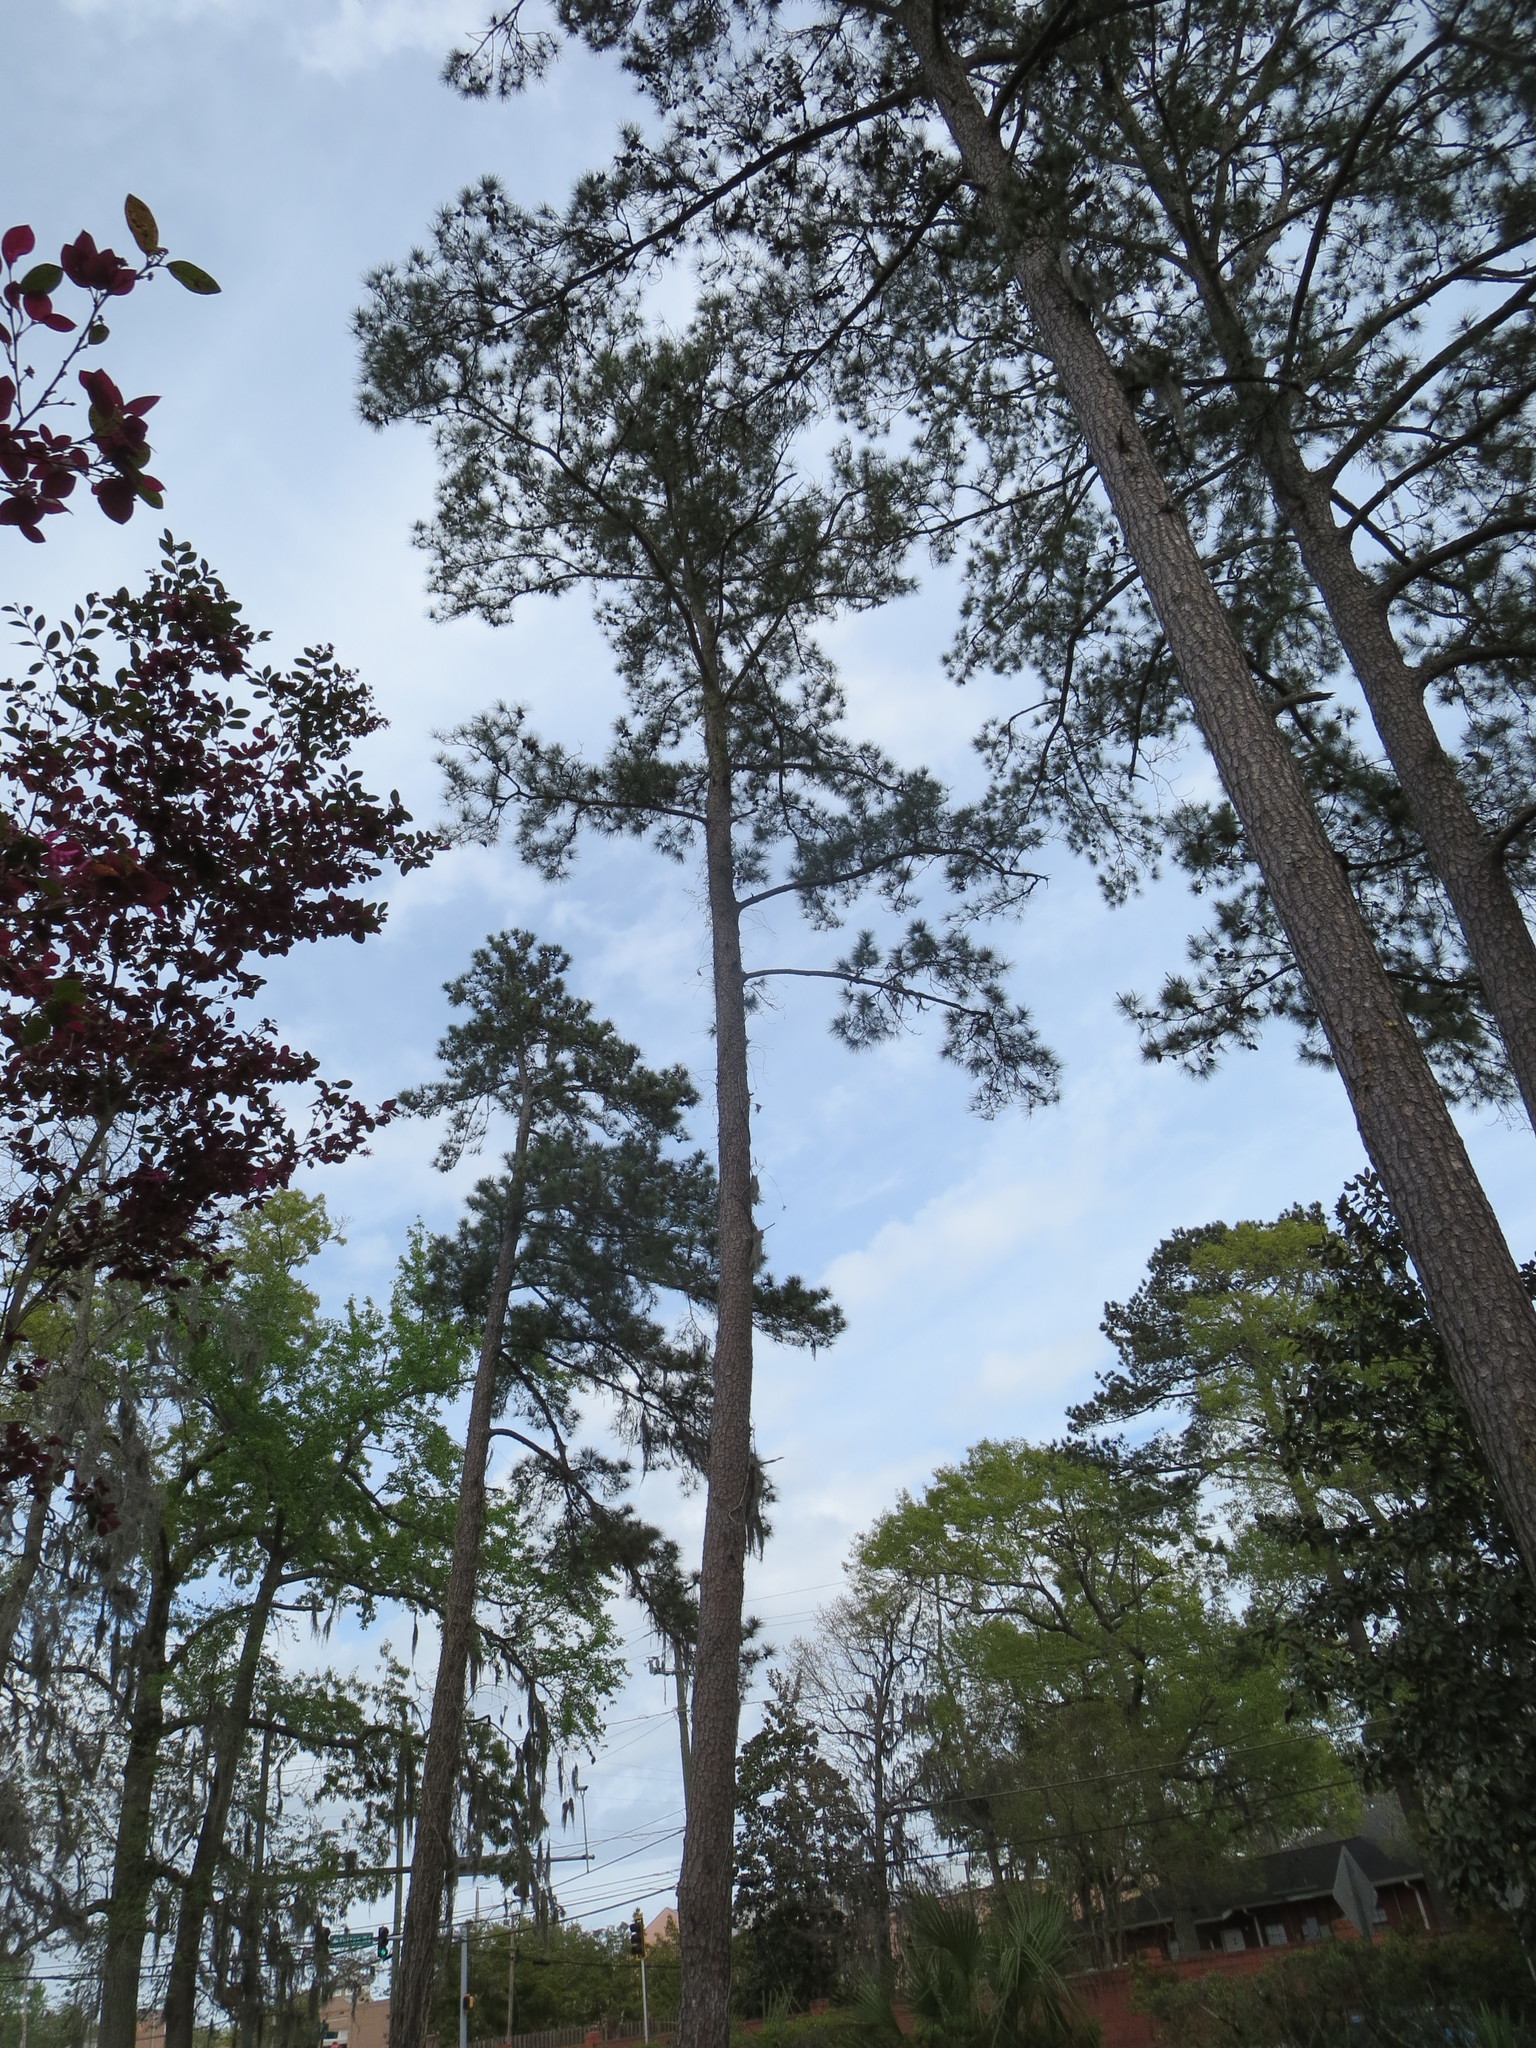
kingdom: Plantae
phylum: Tracheophyta
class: Magnoliopsida
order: Lamiales
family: Bignoniaceae
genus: Campsis
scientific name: Campsis radicans
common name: Trumpet-creeper
